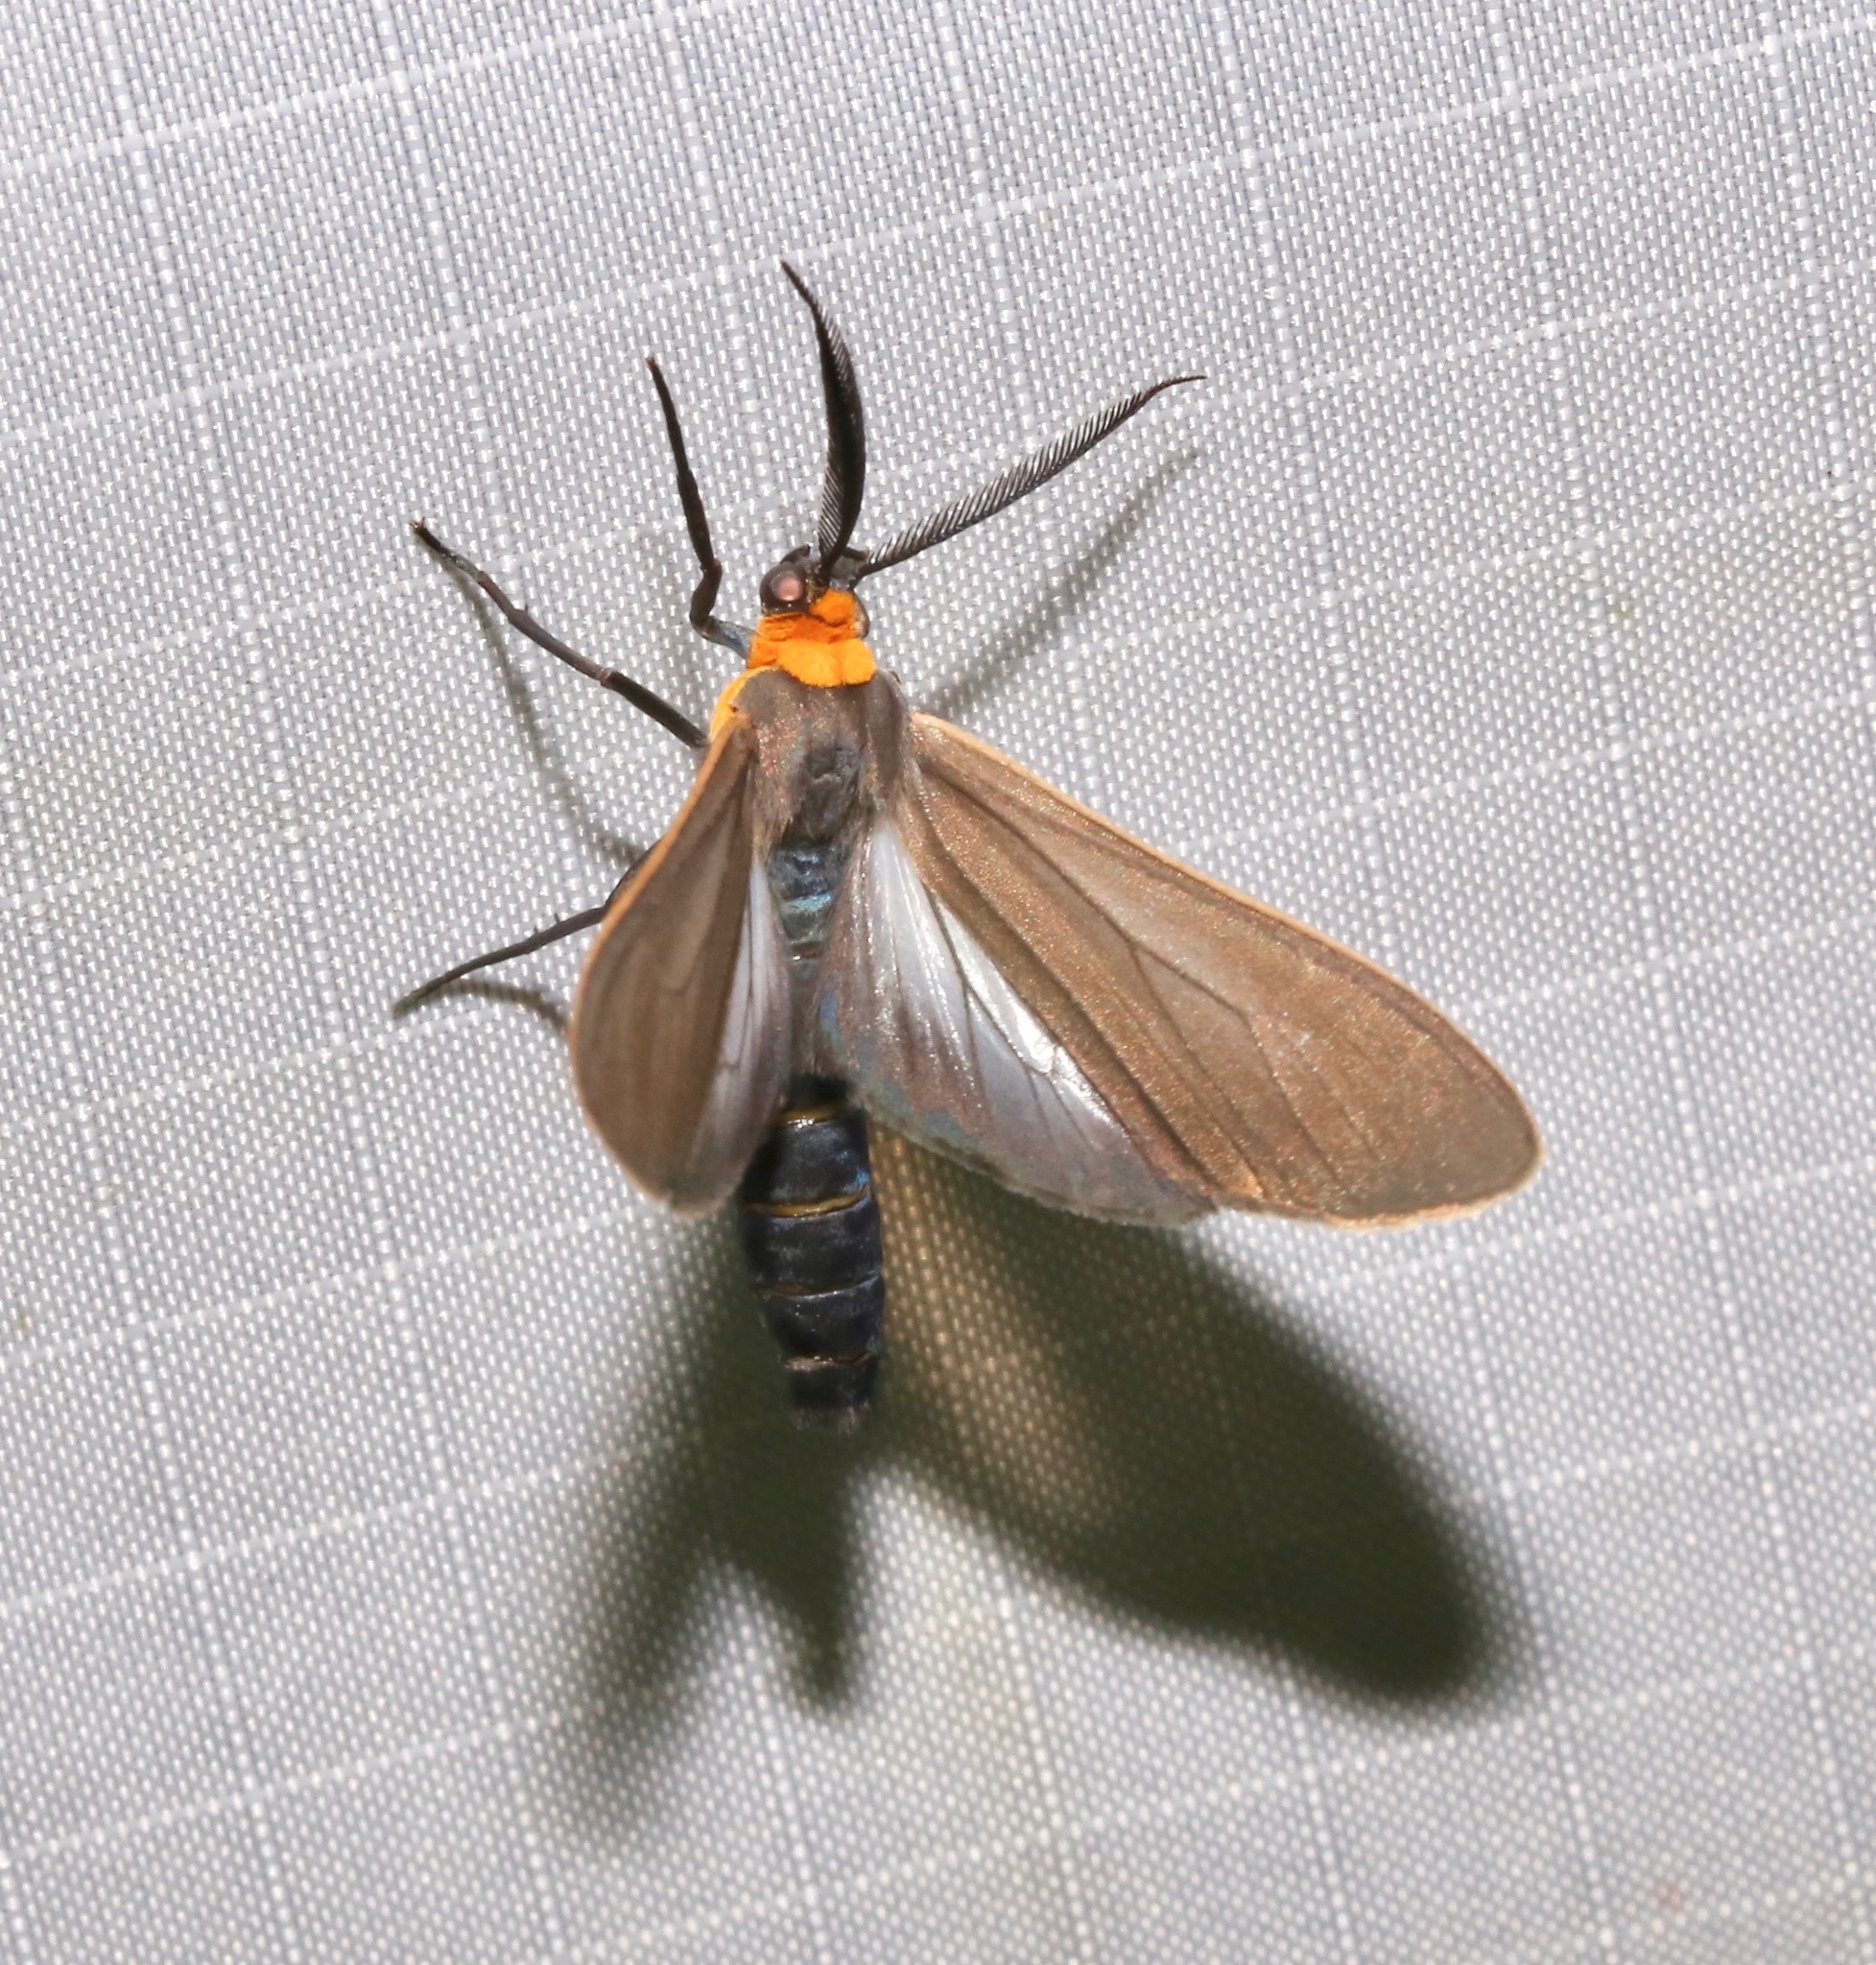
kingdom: Animalia
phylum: Arthropoda
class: Insecta
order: Lepidoptera
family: Erebidae
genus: Cisseps
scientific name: Cisseps fulvicollis
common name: Yellow-collared scape moth
